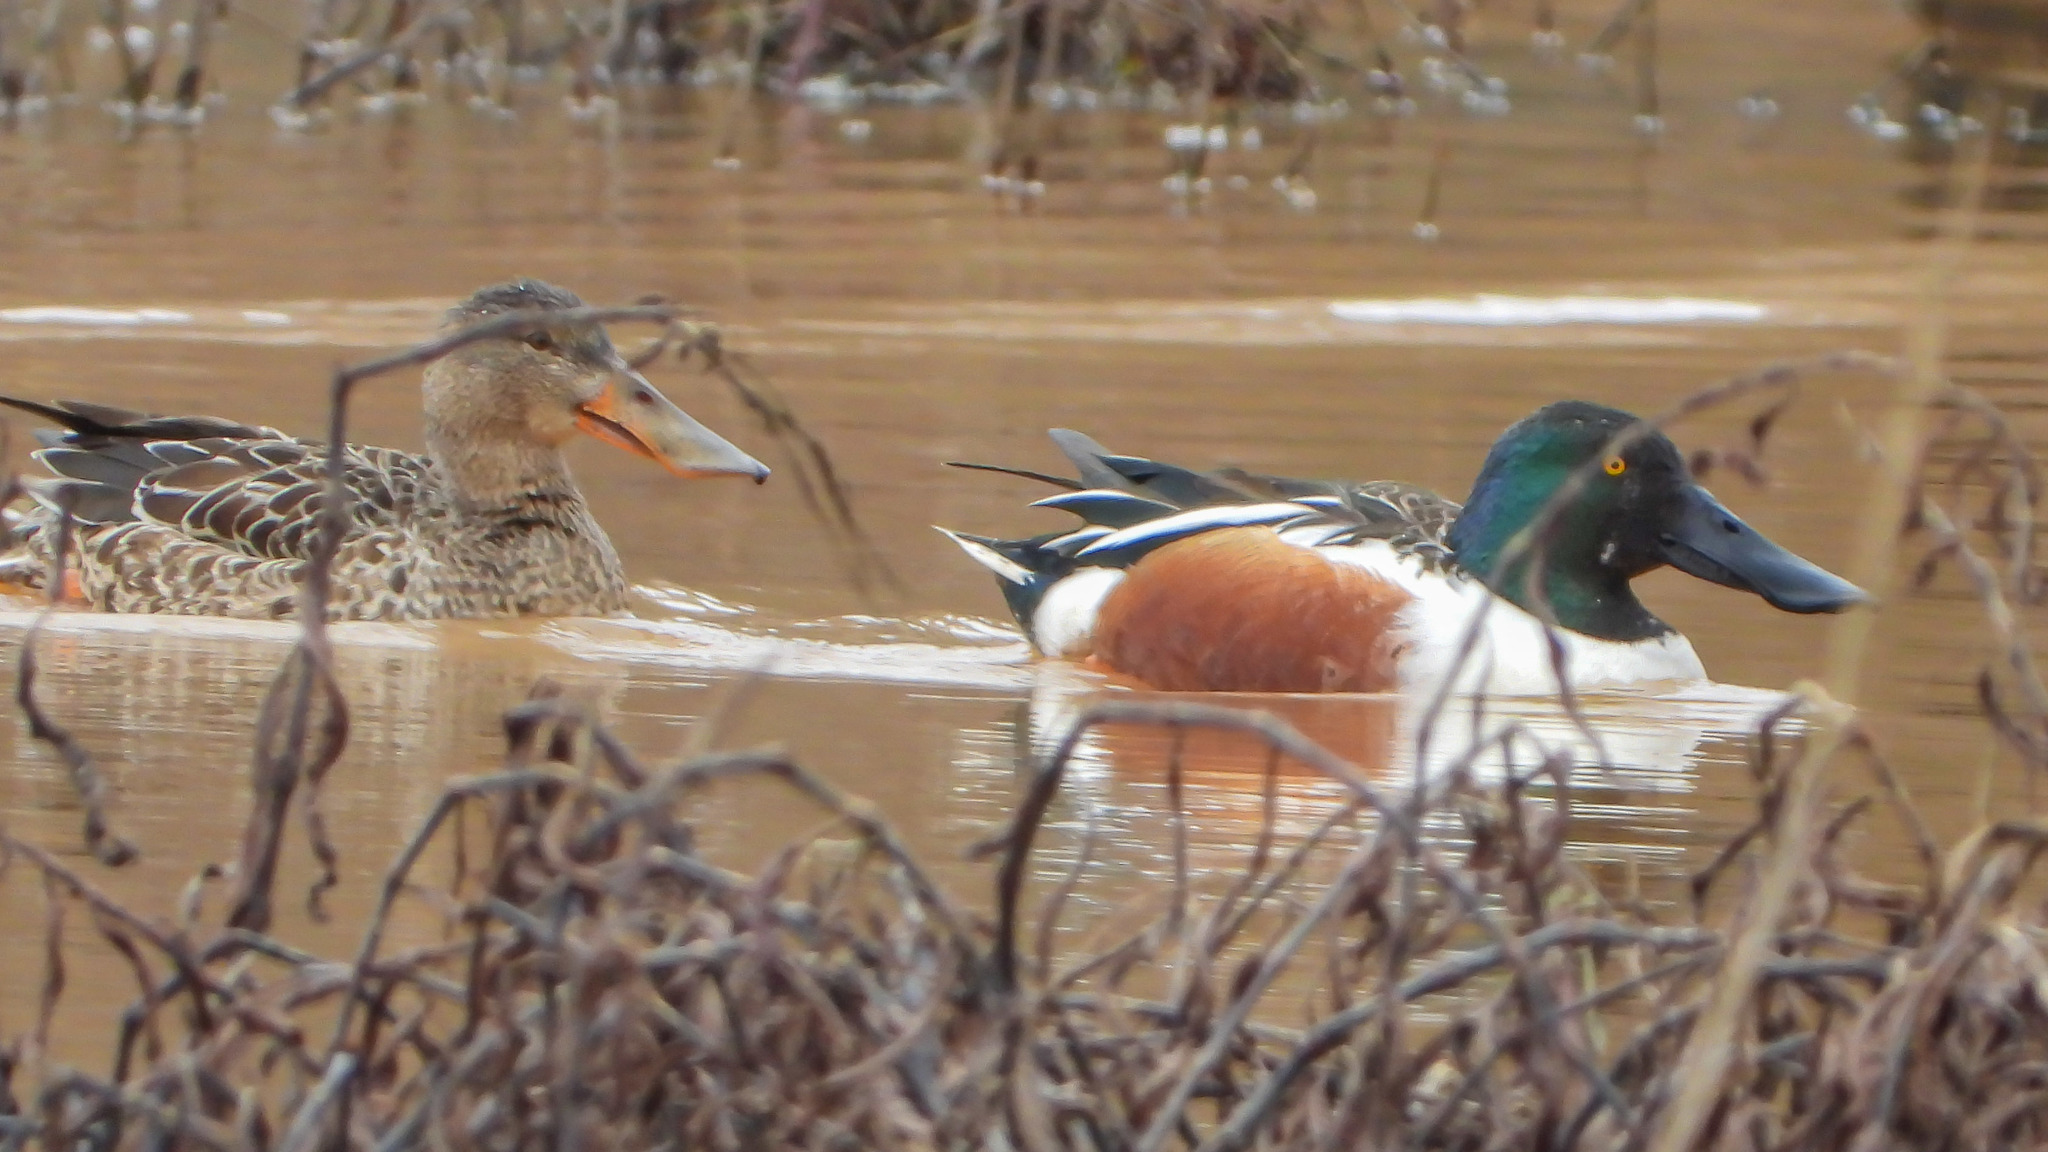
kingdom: Animalia
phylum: Chordata
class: Aves
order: Anseriformes
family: Anatidae
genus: Spatula
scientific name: Spatula clypeata
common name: Northern shoveler
